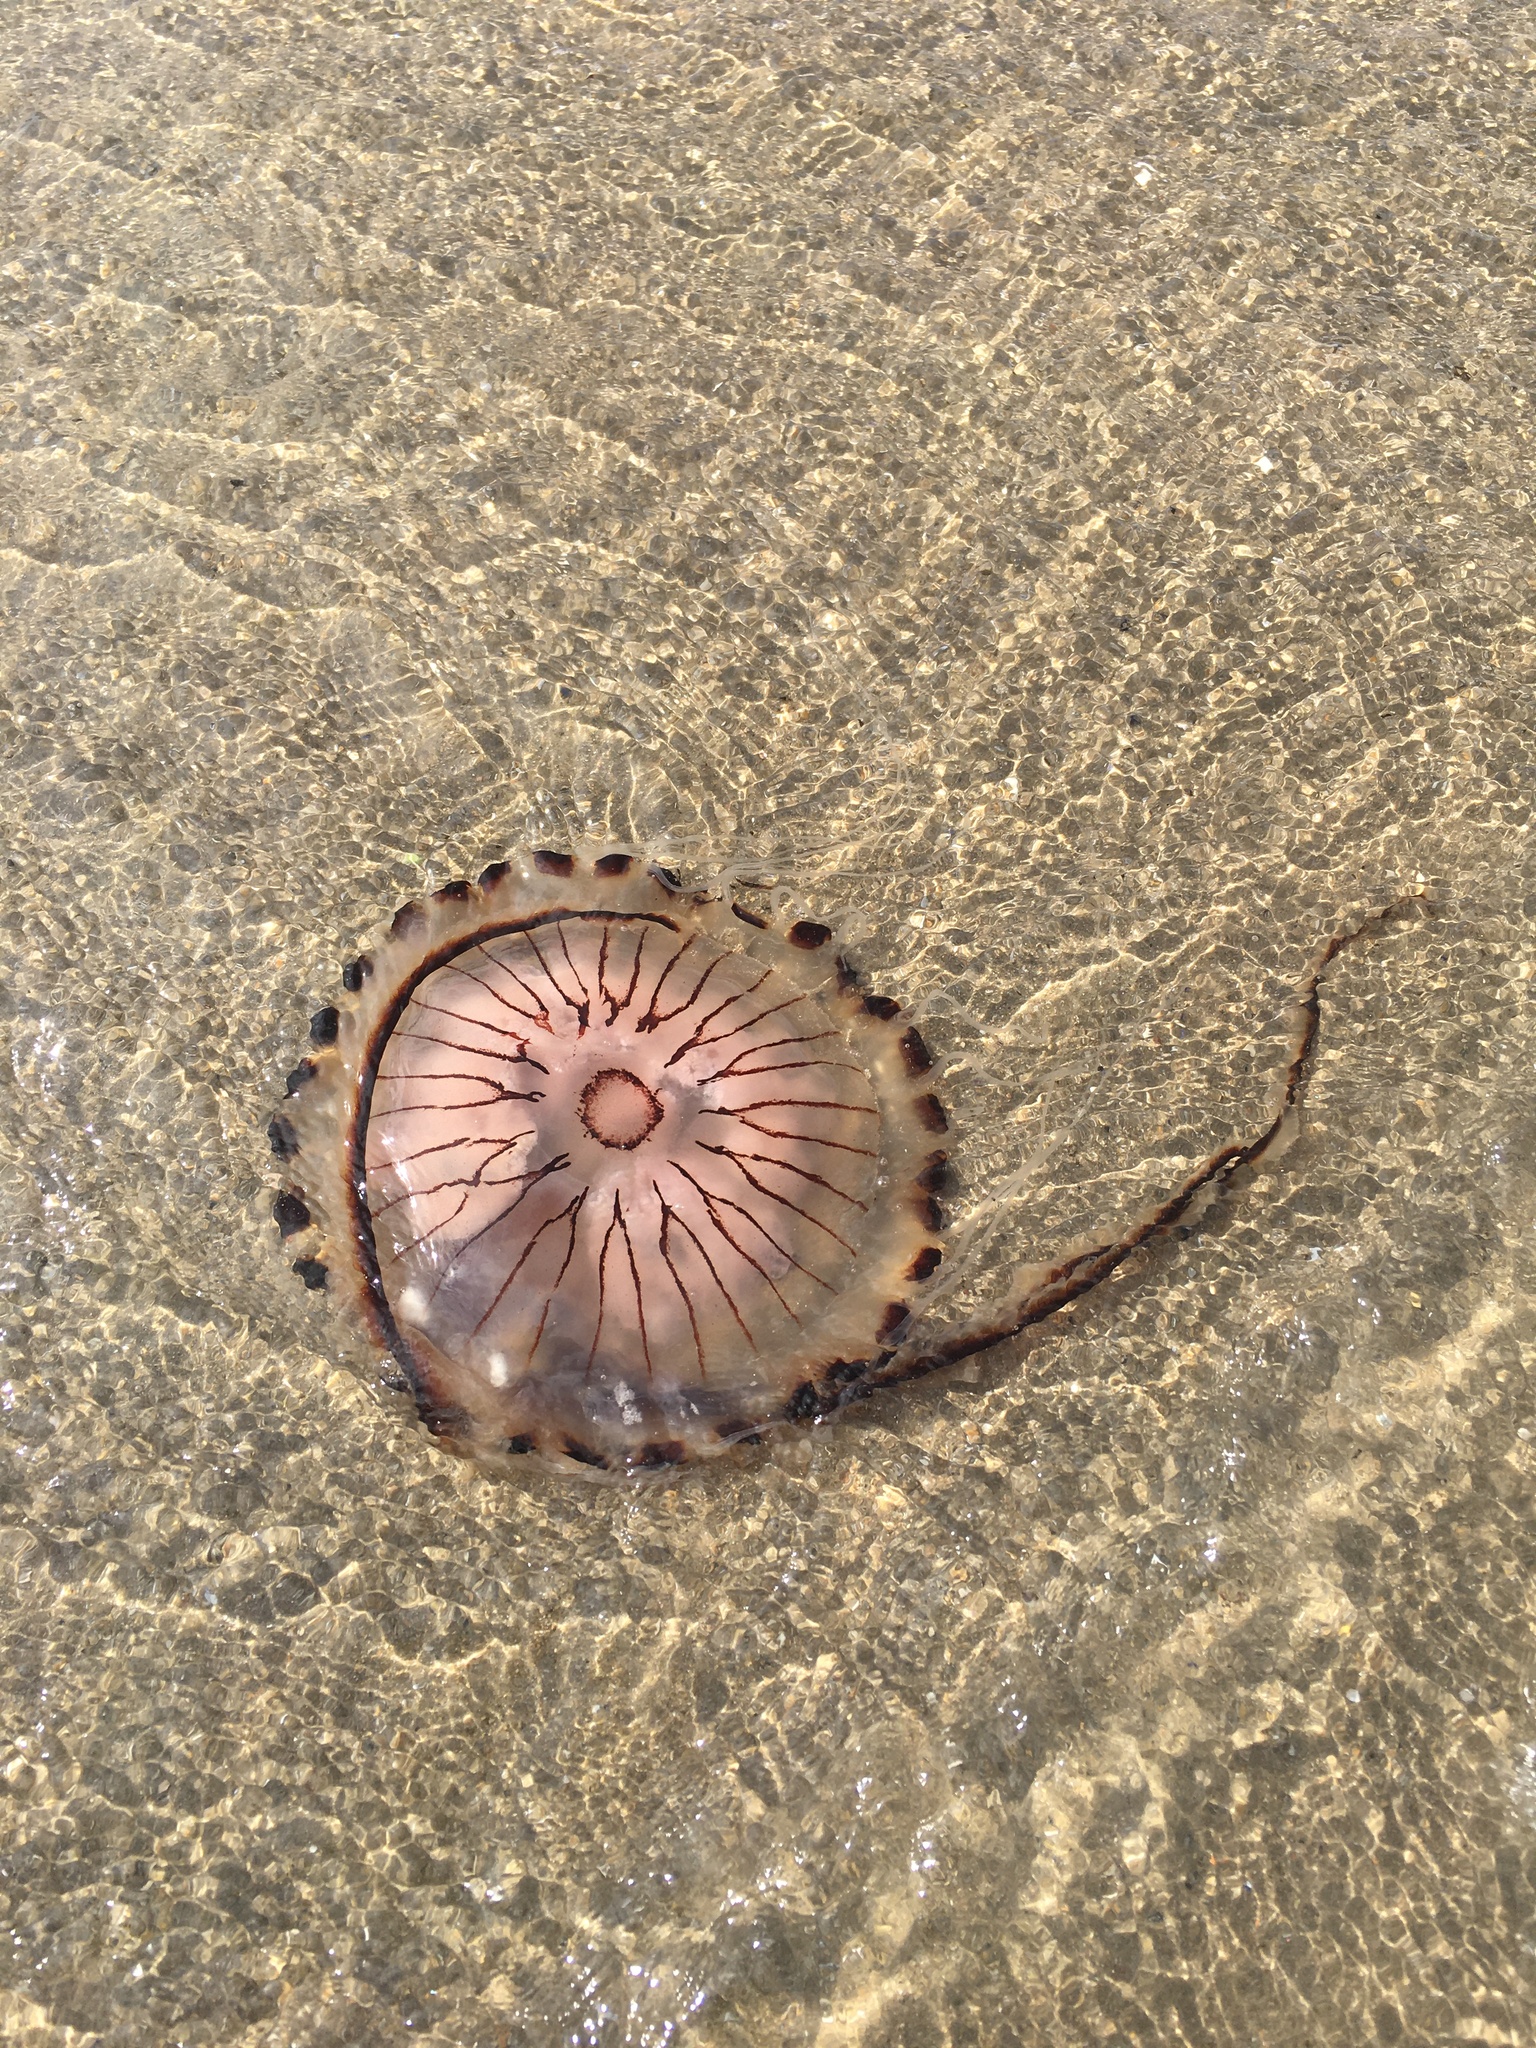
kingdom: Animalia
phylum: Cnidaria
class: Scyphozoa
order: Semaeostomeae
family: Pelagiidae
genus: Chrysaora
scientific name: Chrysaora hysoscella
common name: Compass jellyfish
